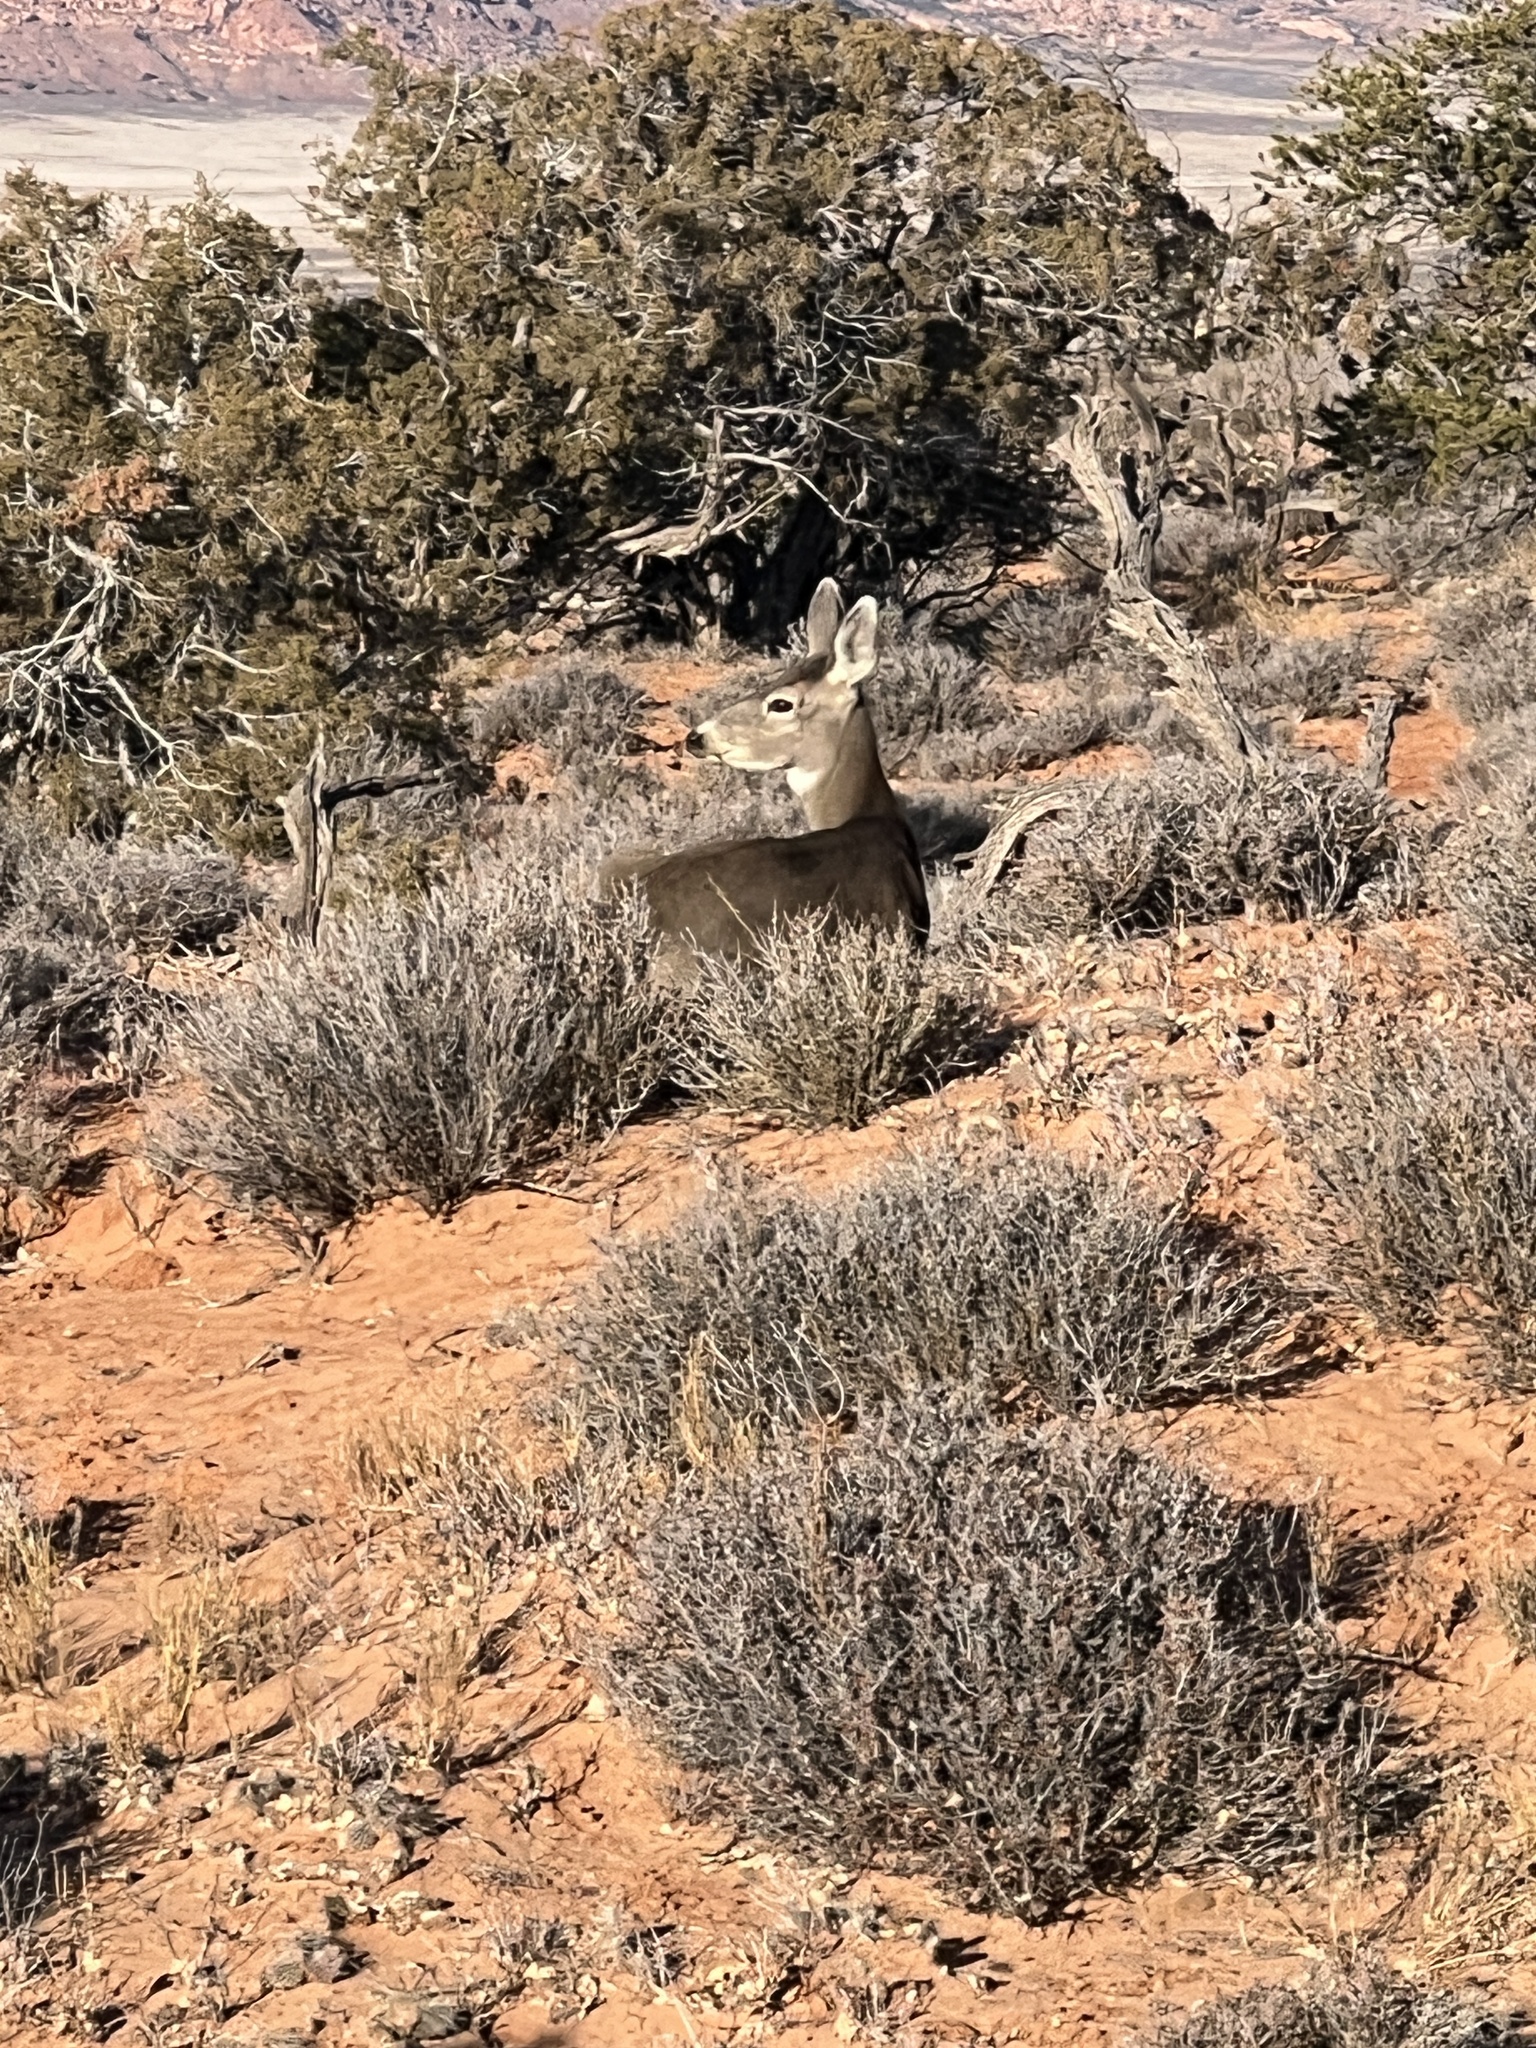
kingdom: Animalia
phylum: Chordata
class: Mammalia
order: Artiodactyla
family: Cervidae
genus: Odocoileus
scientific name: Odocoileus hemionus
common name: Mule deer
